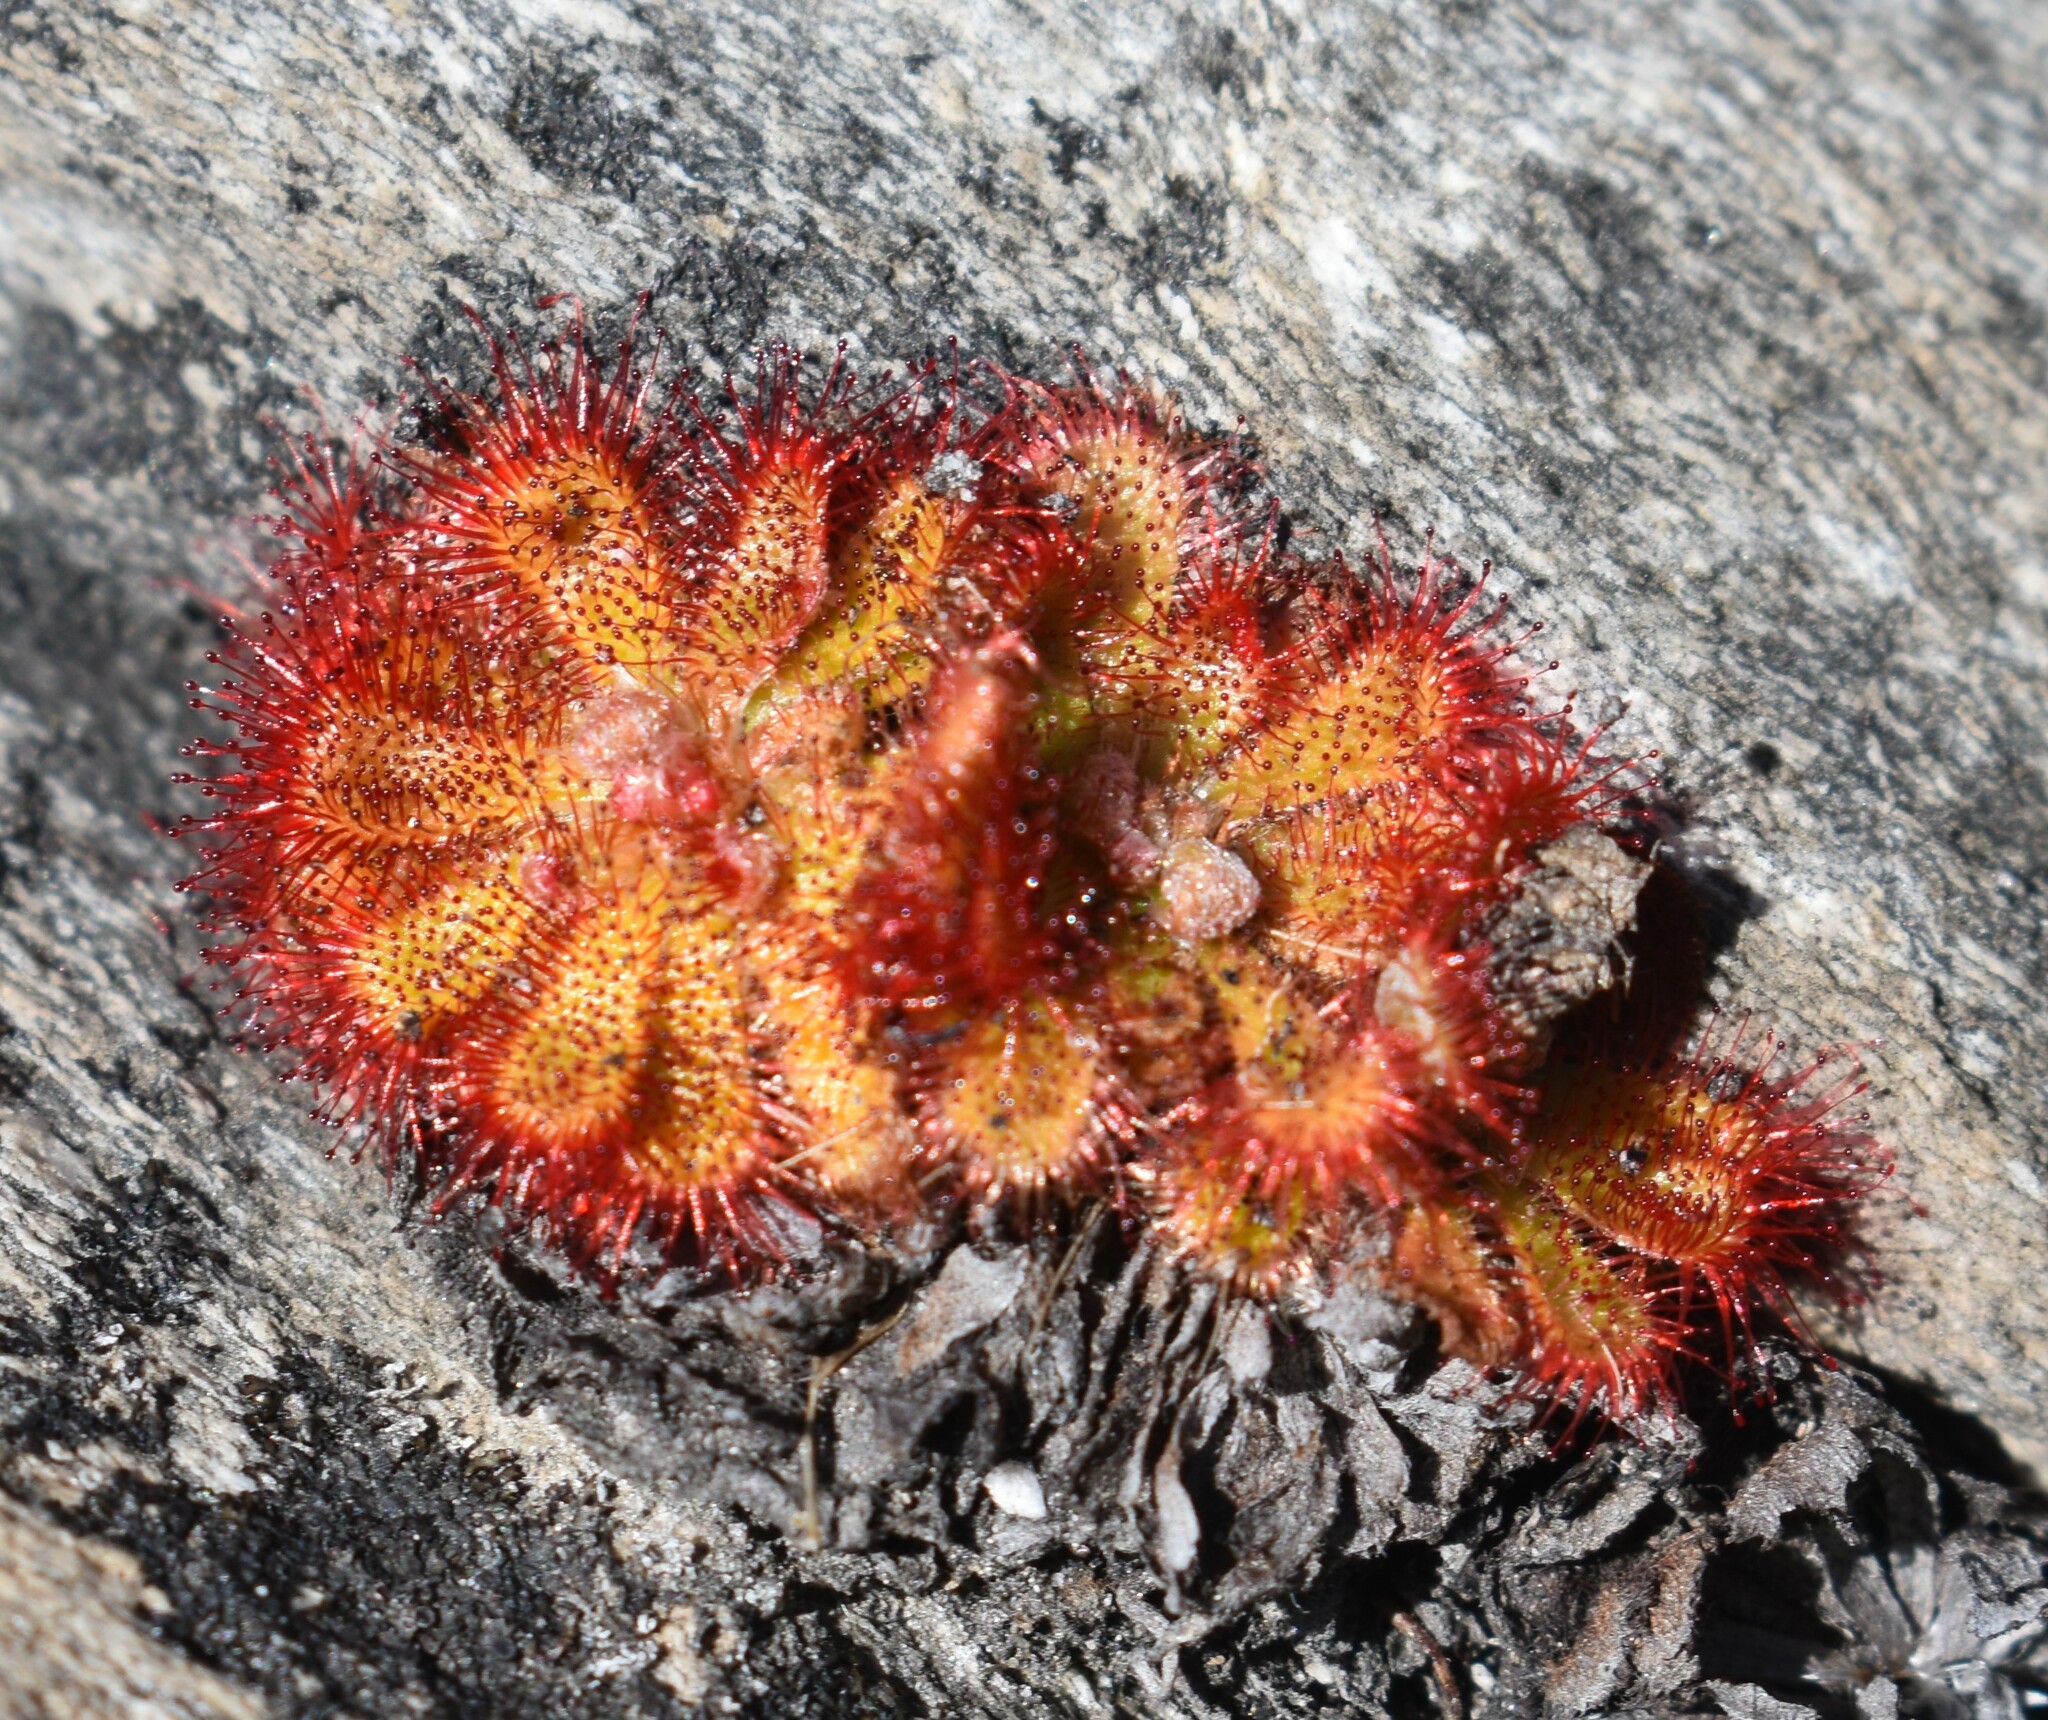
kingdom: Plantae
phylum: Tracheophyta
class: Magnoliopsida
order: Caryophyllales
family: Droseraceae
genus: Drosera
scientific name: Drosera aliciae
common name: Alice sundew
